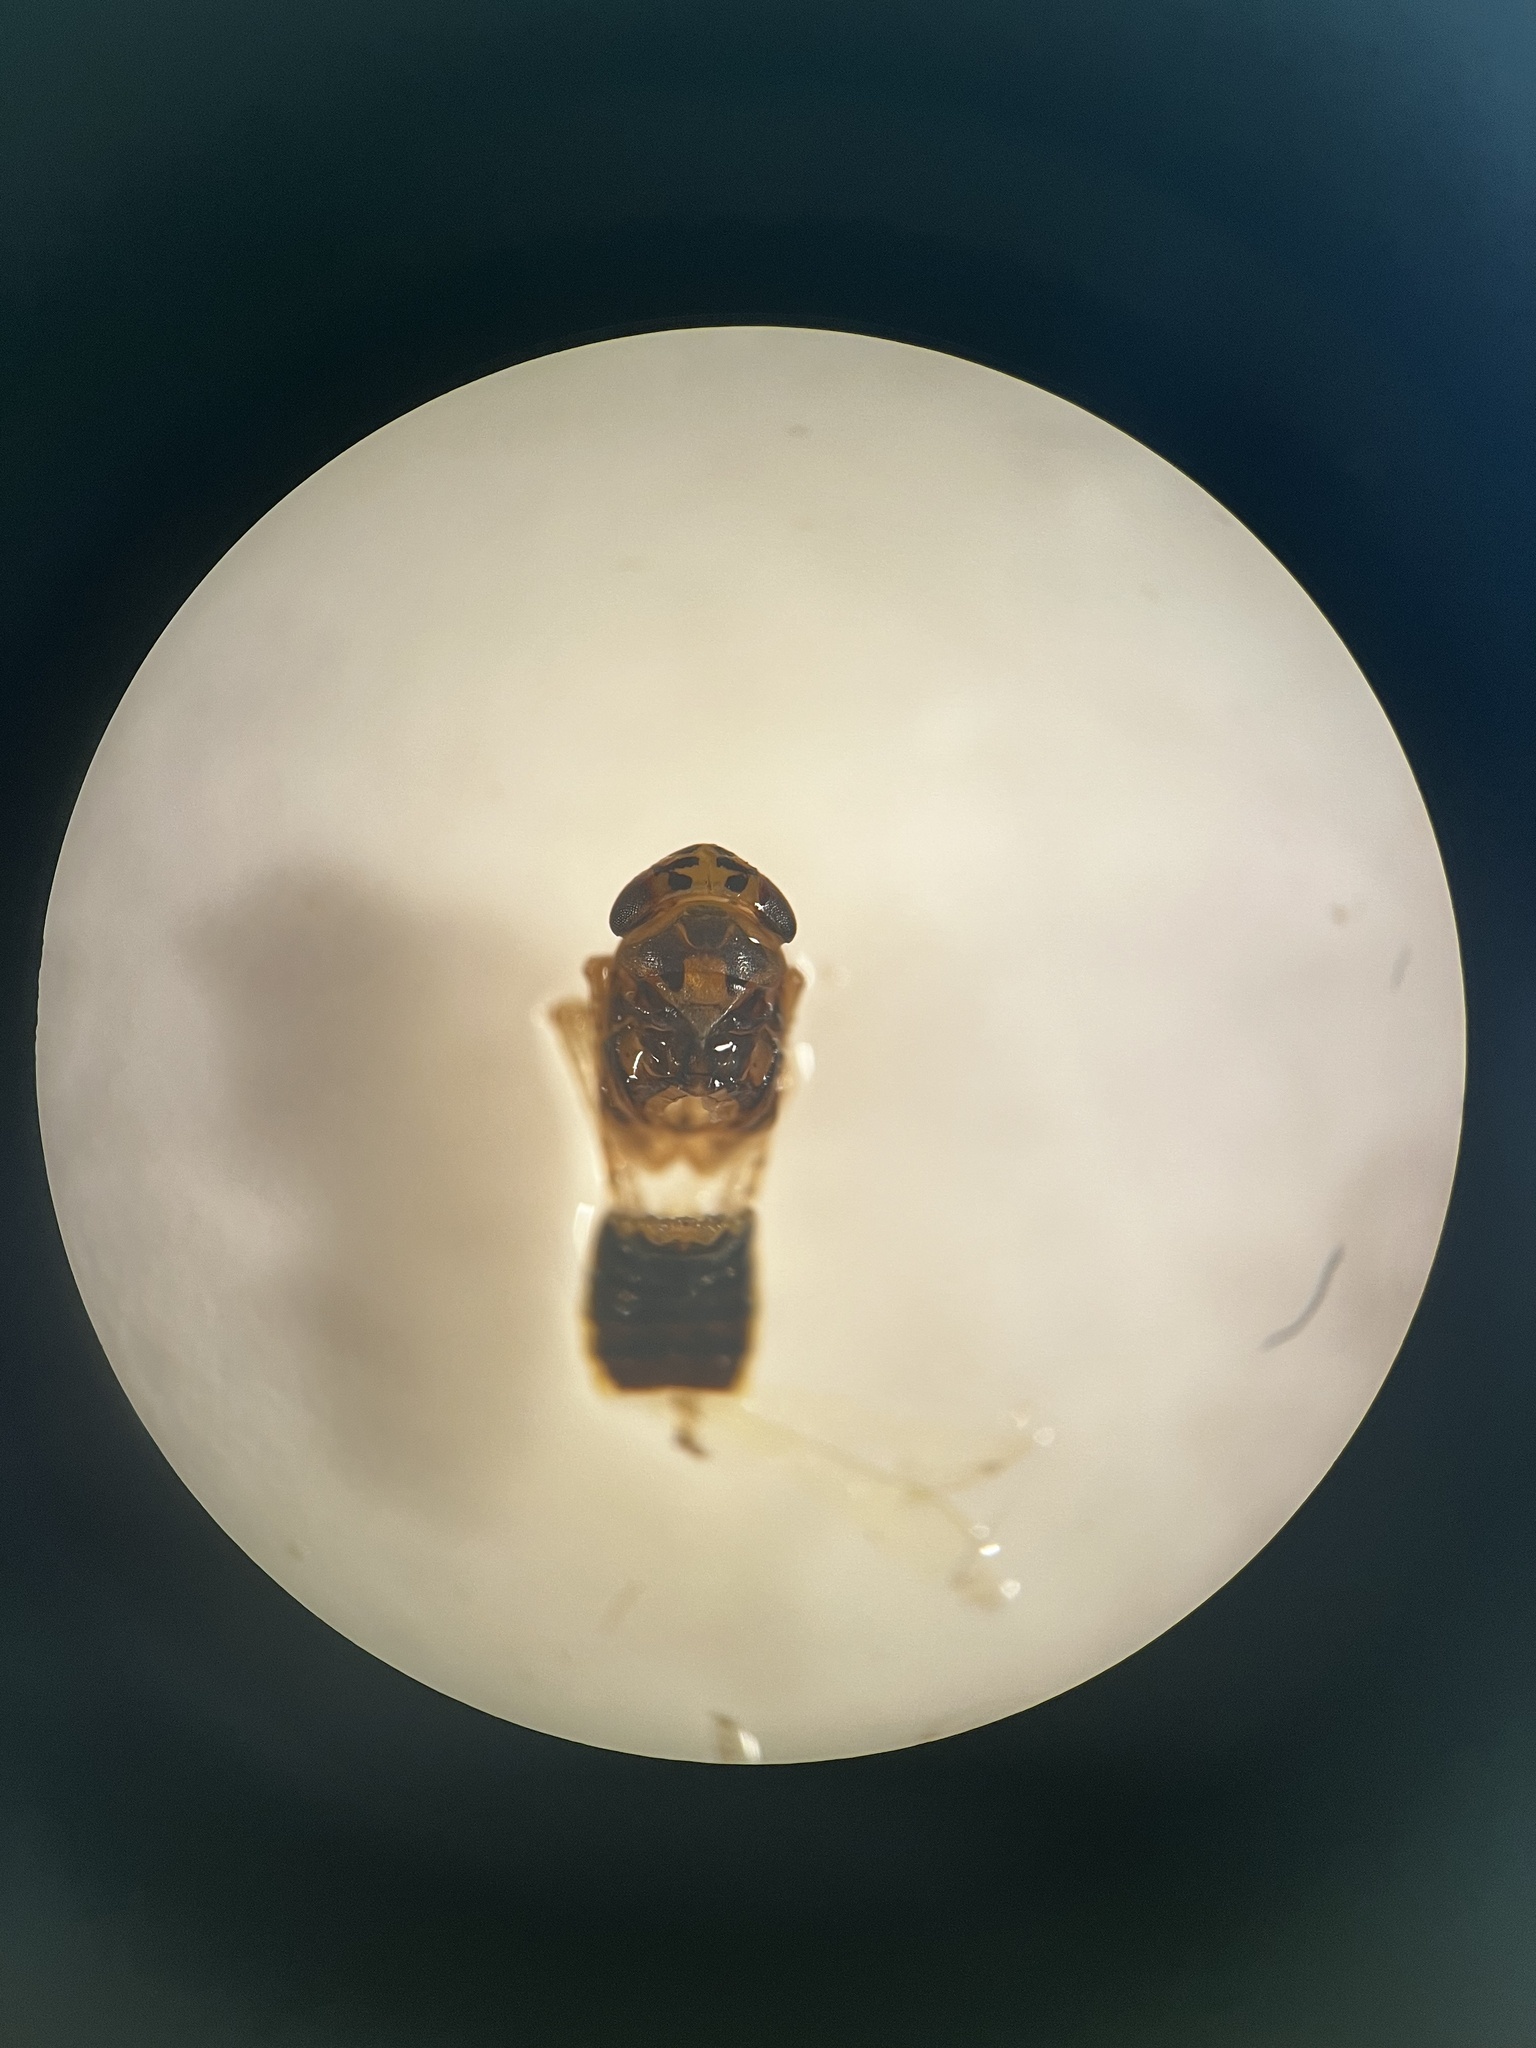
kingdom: Animalia
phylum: Arthropoda
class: Insecta
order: Hemiptera
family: Cicadellidae
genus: Macrosteles
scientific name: Macrosteles cristatus
